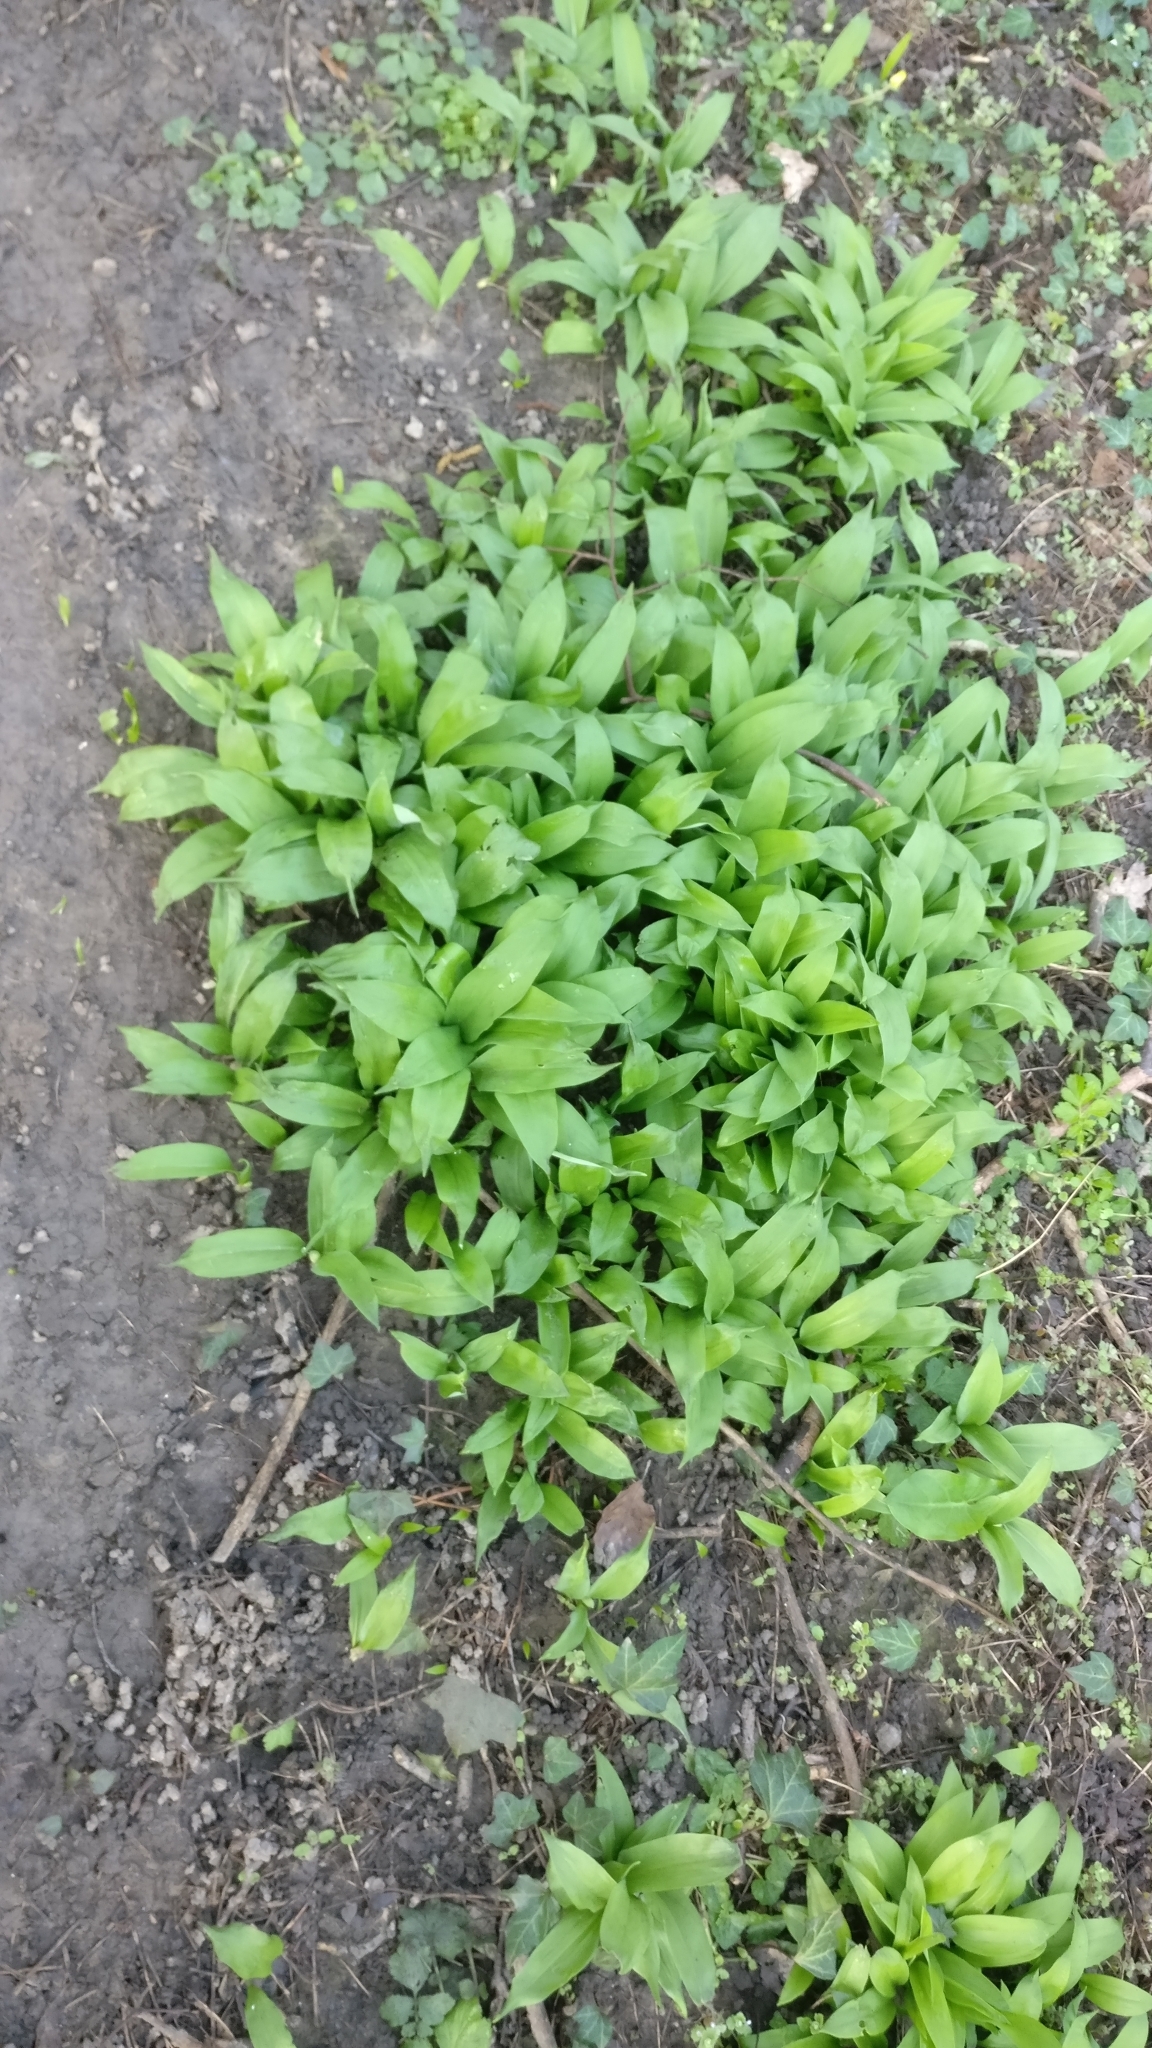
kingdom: Plantae
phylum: Tracheophyta
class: Liliopsida
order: Asparagales
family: Amaryllidaceae
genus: Allium
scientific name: Allium ursinum
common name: Ramsons
